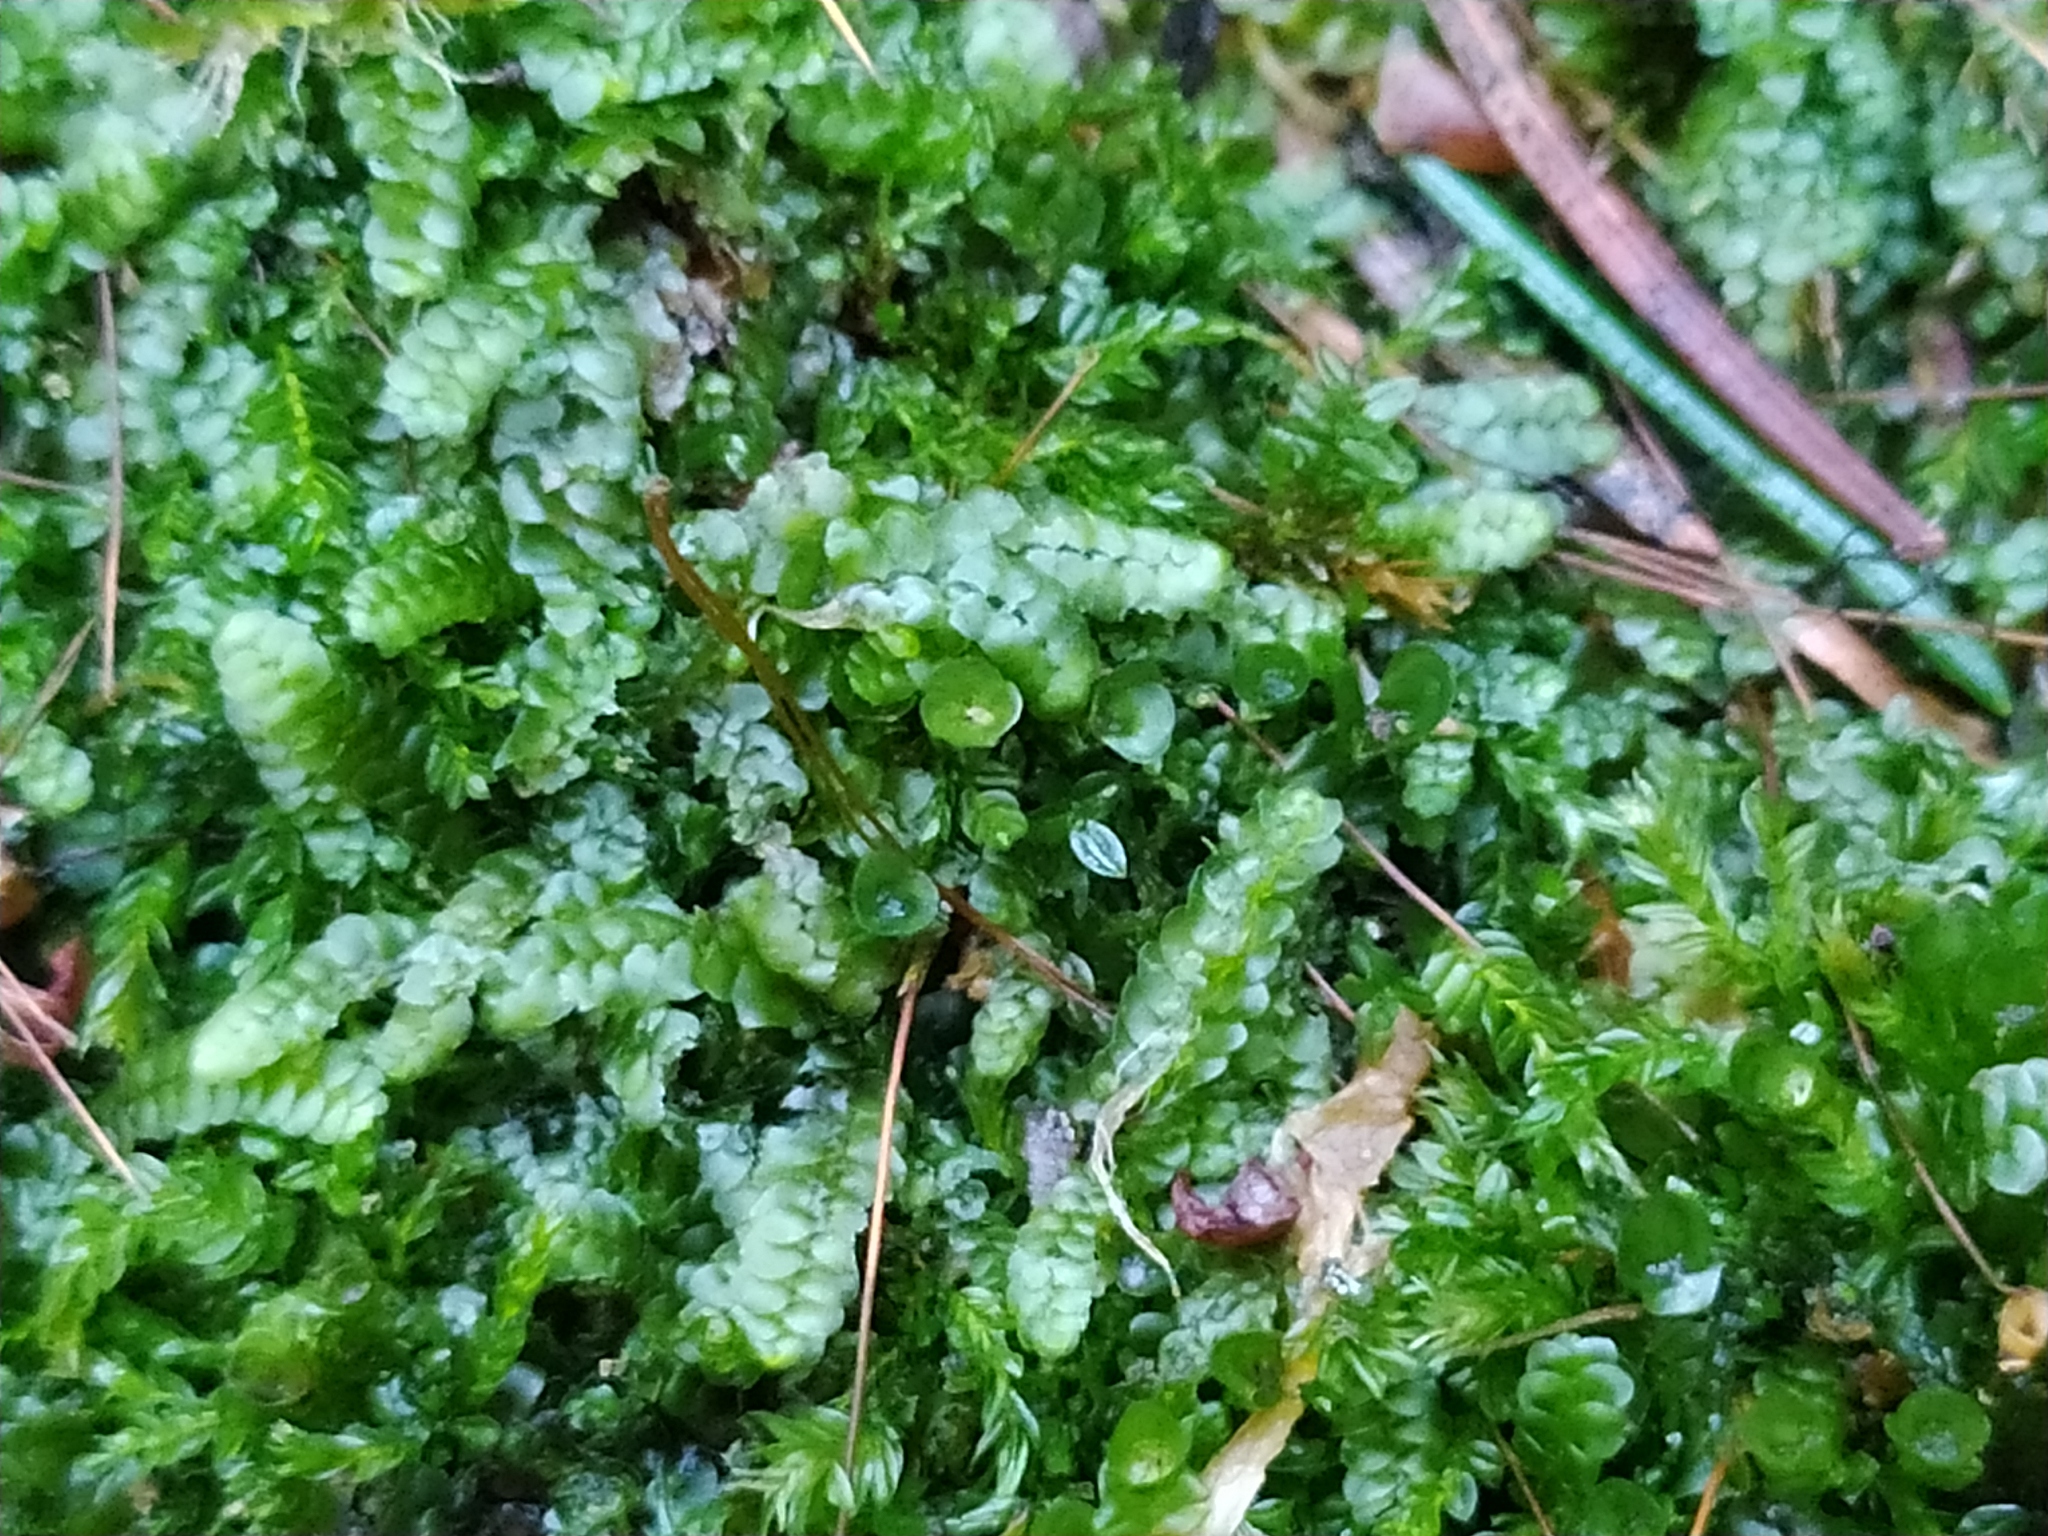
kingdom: Plantae
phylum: Marchantiophyta
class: Jungermanniopsida
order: Jungermanniales
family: Calypogeiaceae
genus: Calypogeia
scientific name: Calypogeia muelleriana
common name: Mueller s pouchwort
